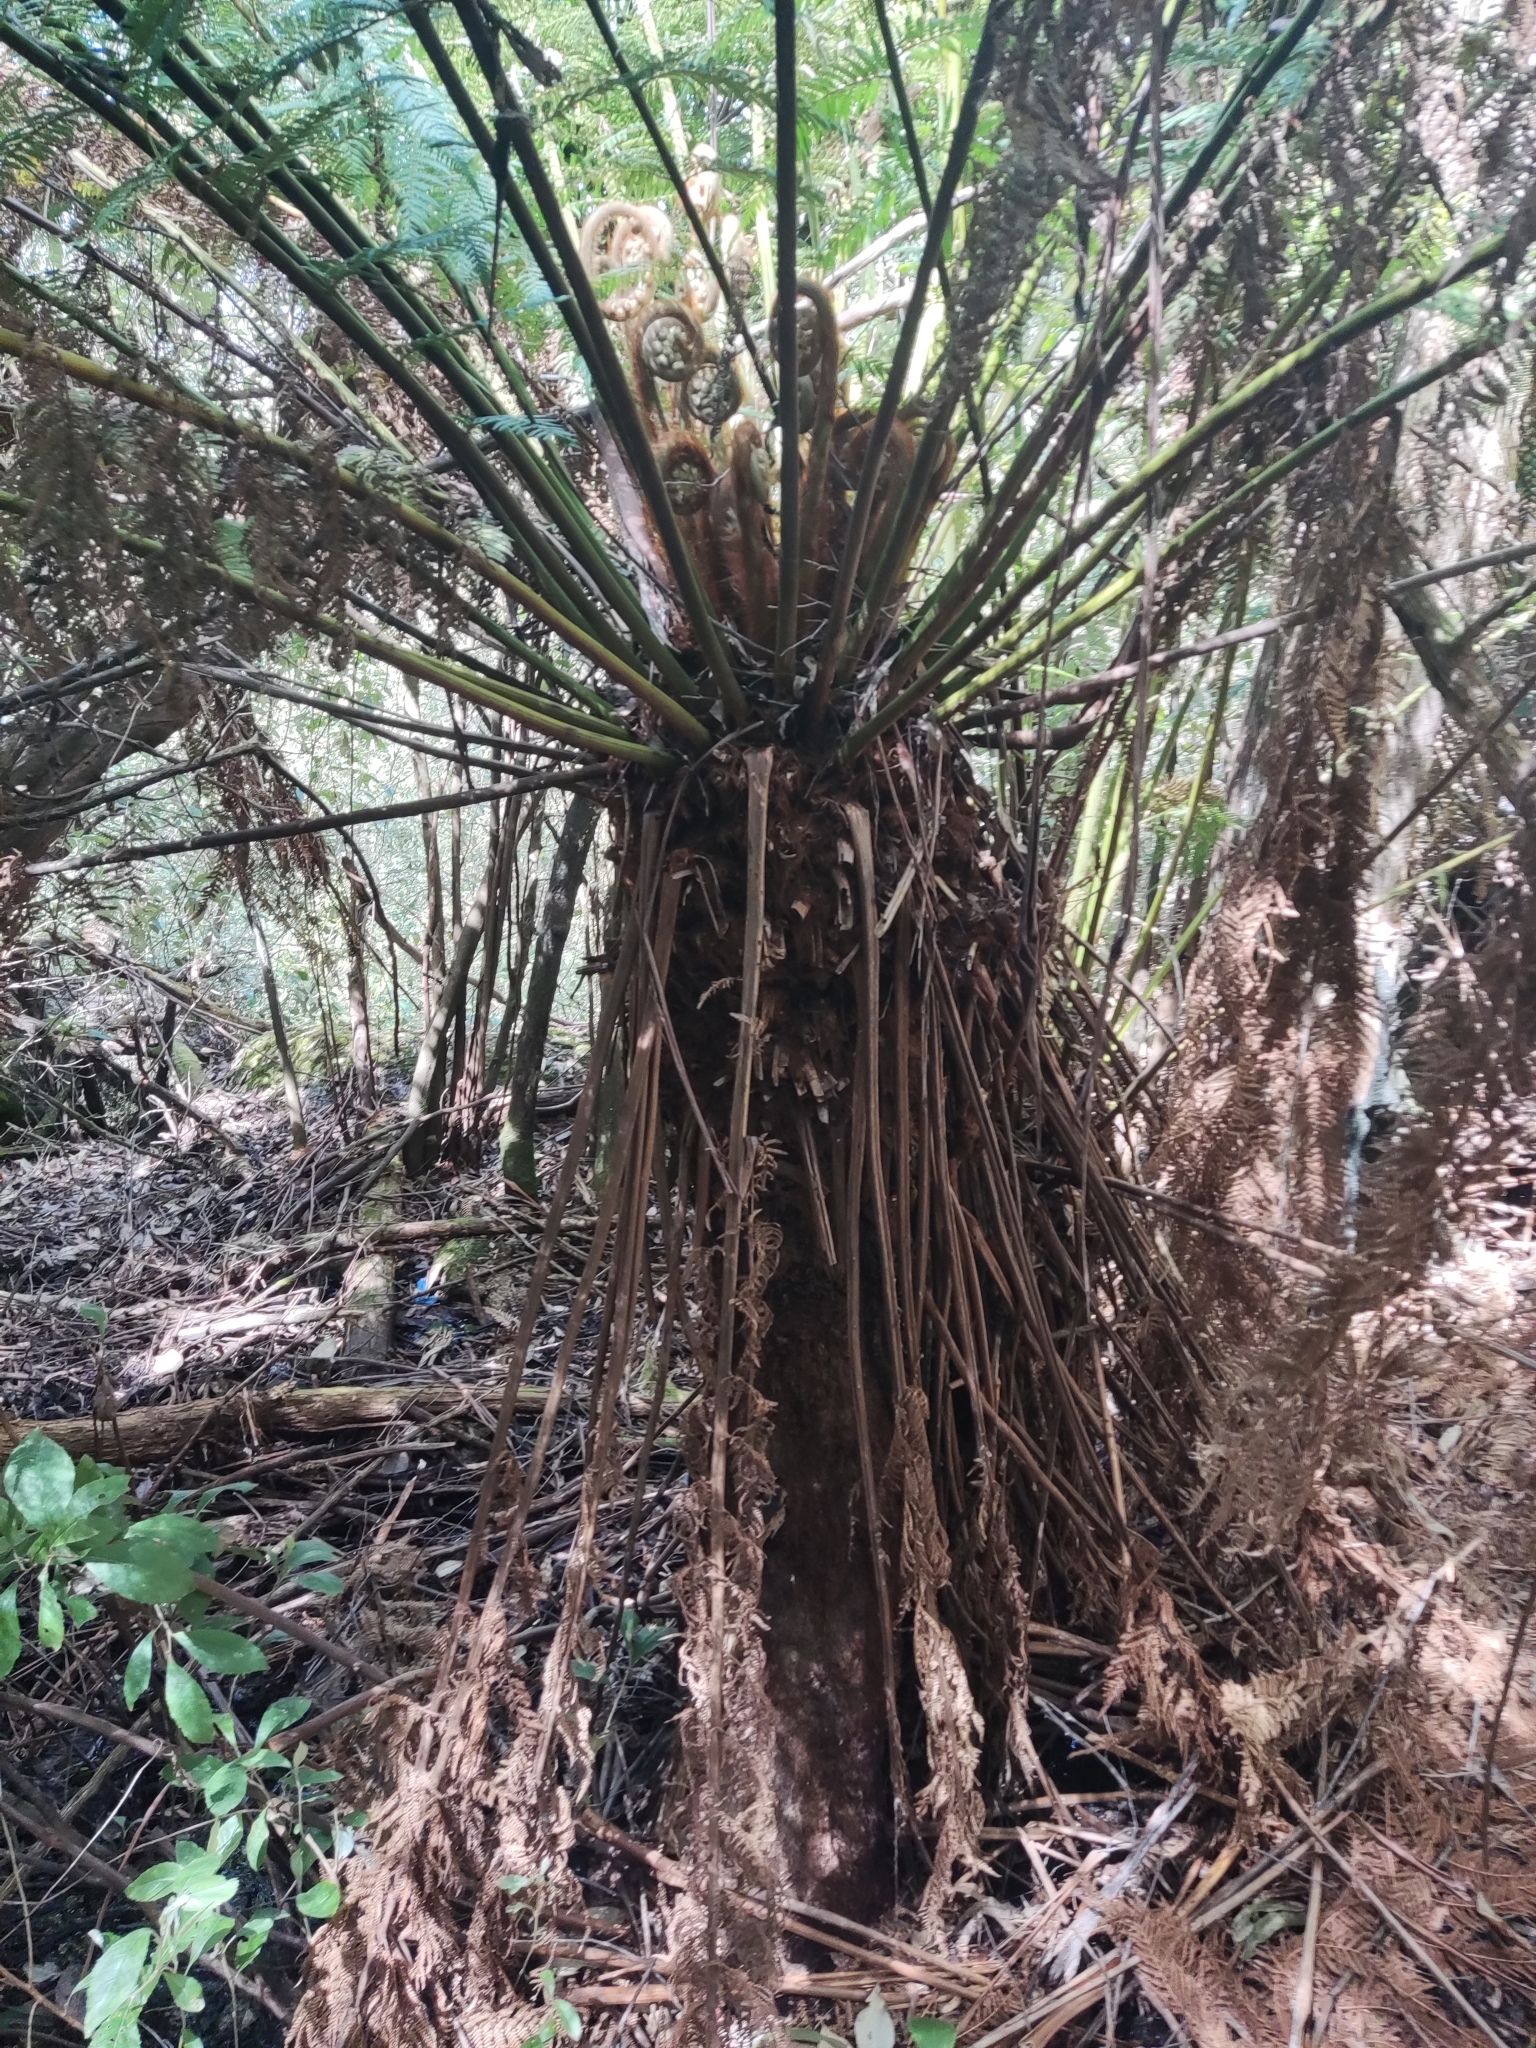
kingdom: Plantae
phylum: Tracheophyta
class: Polypodiopsida
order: Cyatheales
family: Dicksoniaceae
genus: Dicksonia
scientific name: Dicksonia antarctica
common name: Australian treefern
